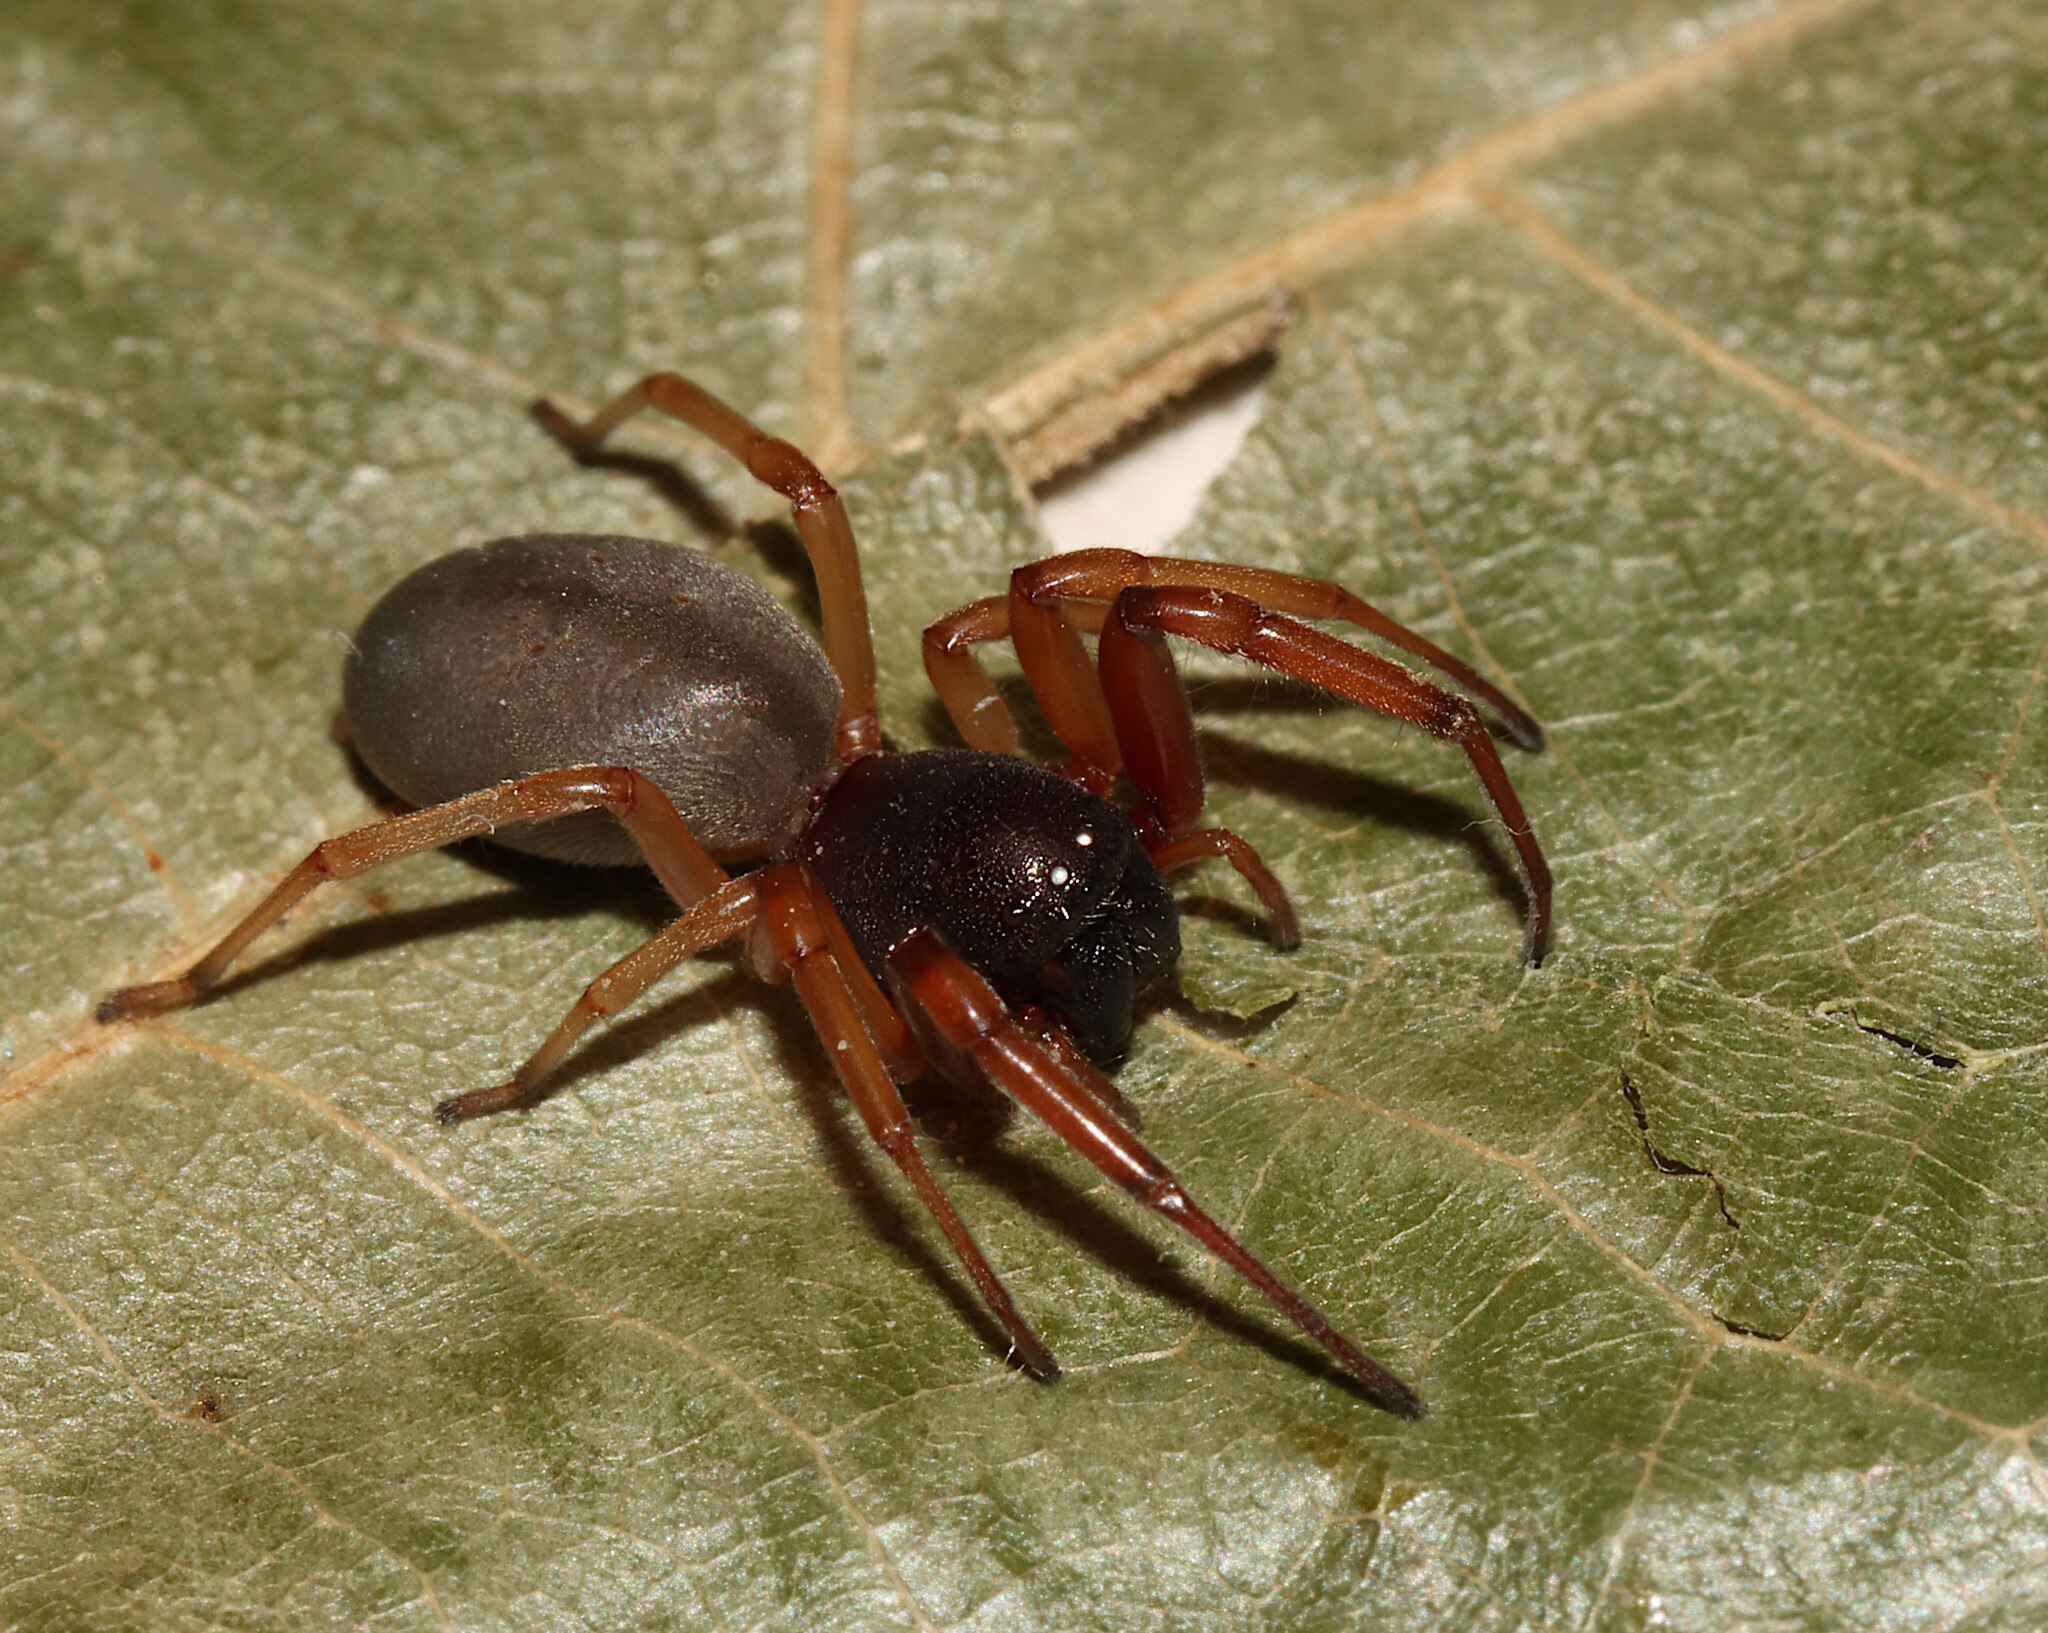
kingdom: Animalia
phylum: Arthropoda
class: Arachnida
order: Araneae
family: Trachelidae
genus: Trachelas
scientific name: Trachelas
